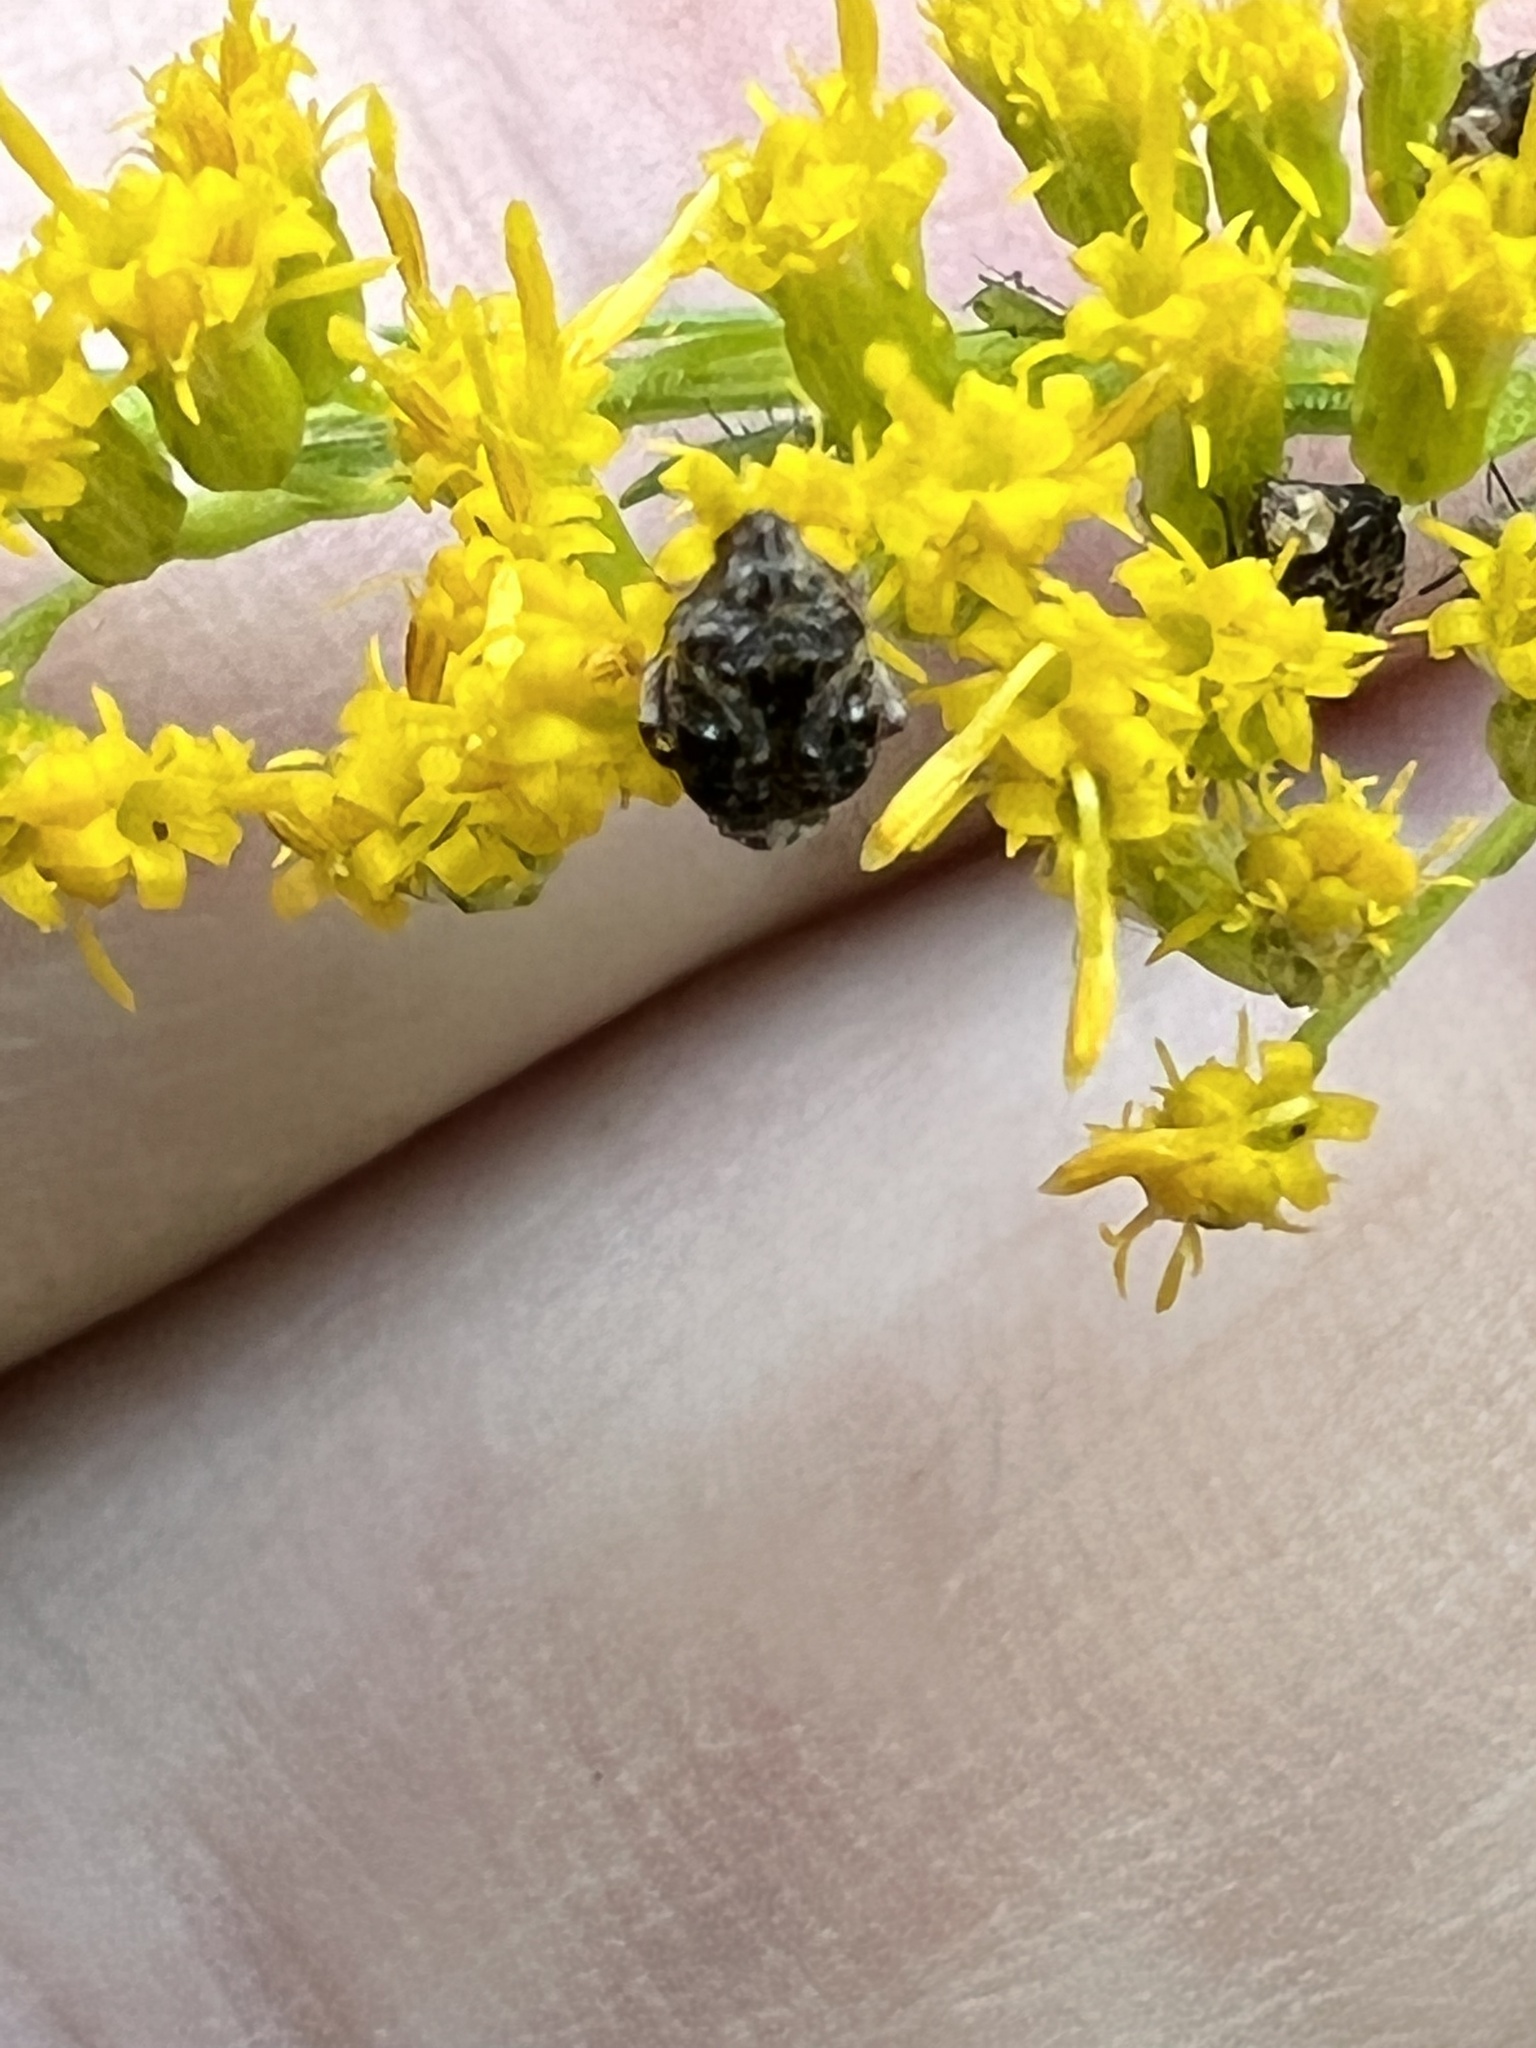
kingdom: Animalia
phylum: Arthropoda
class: Insecta
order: Coleoptera
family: Chrysomelidae
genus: Gibbobruchus
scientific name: Gibbobruchus mimus
